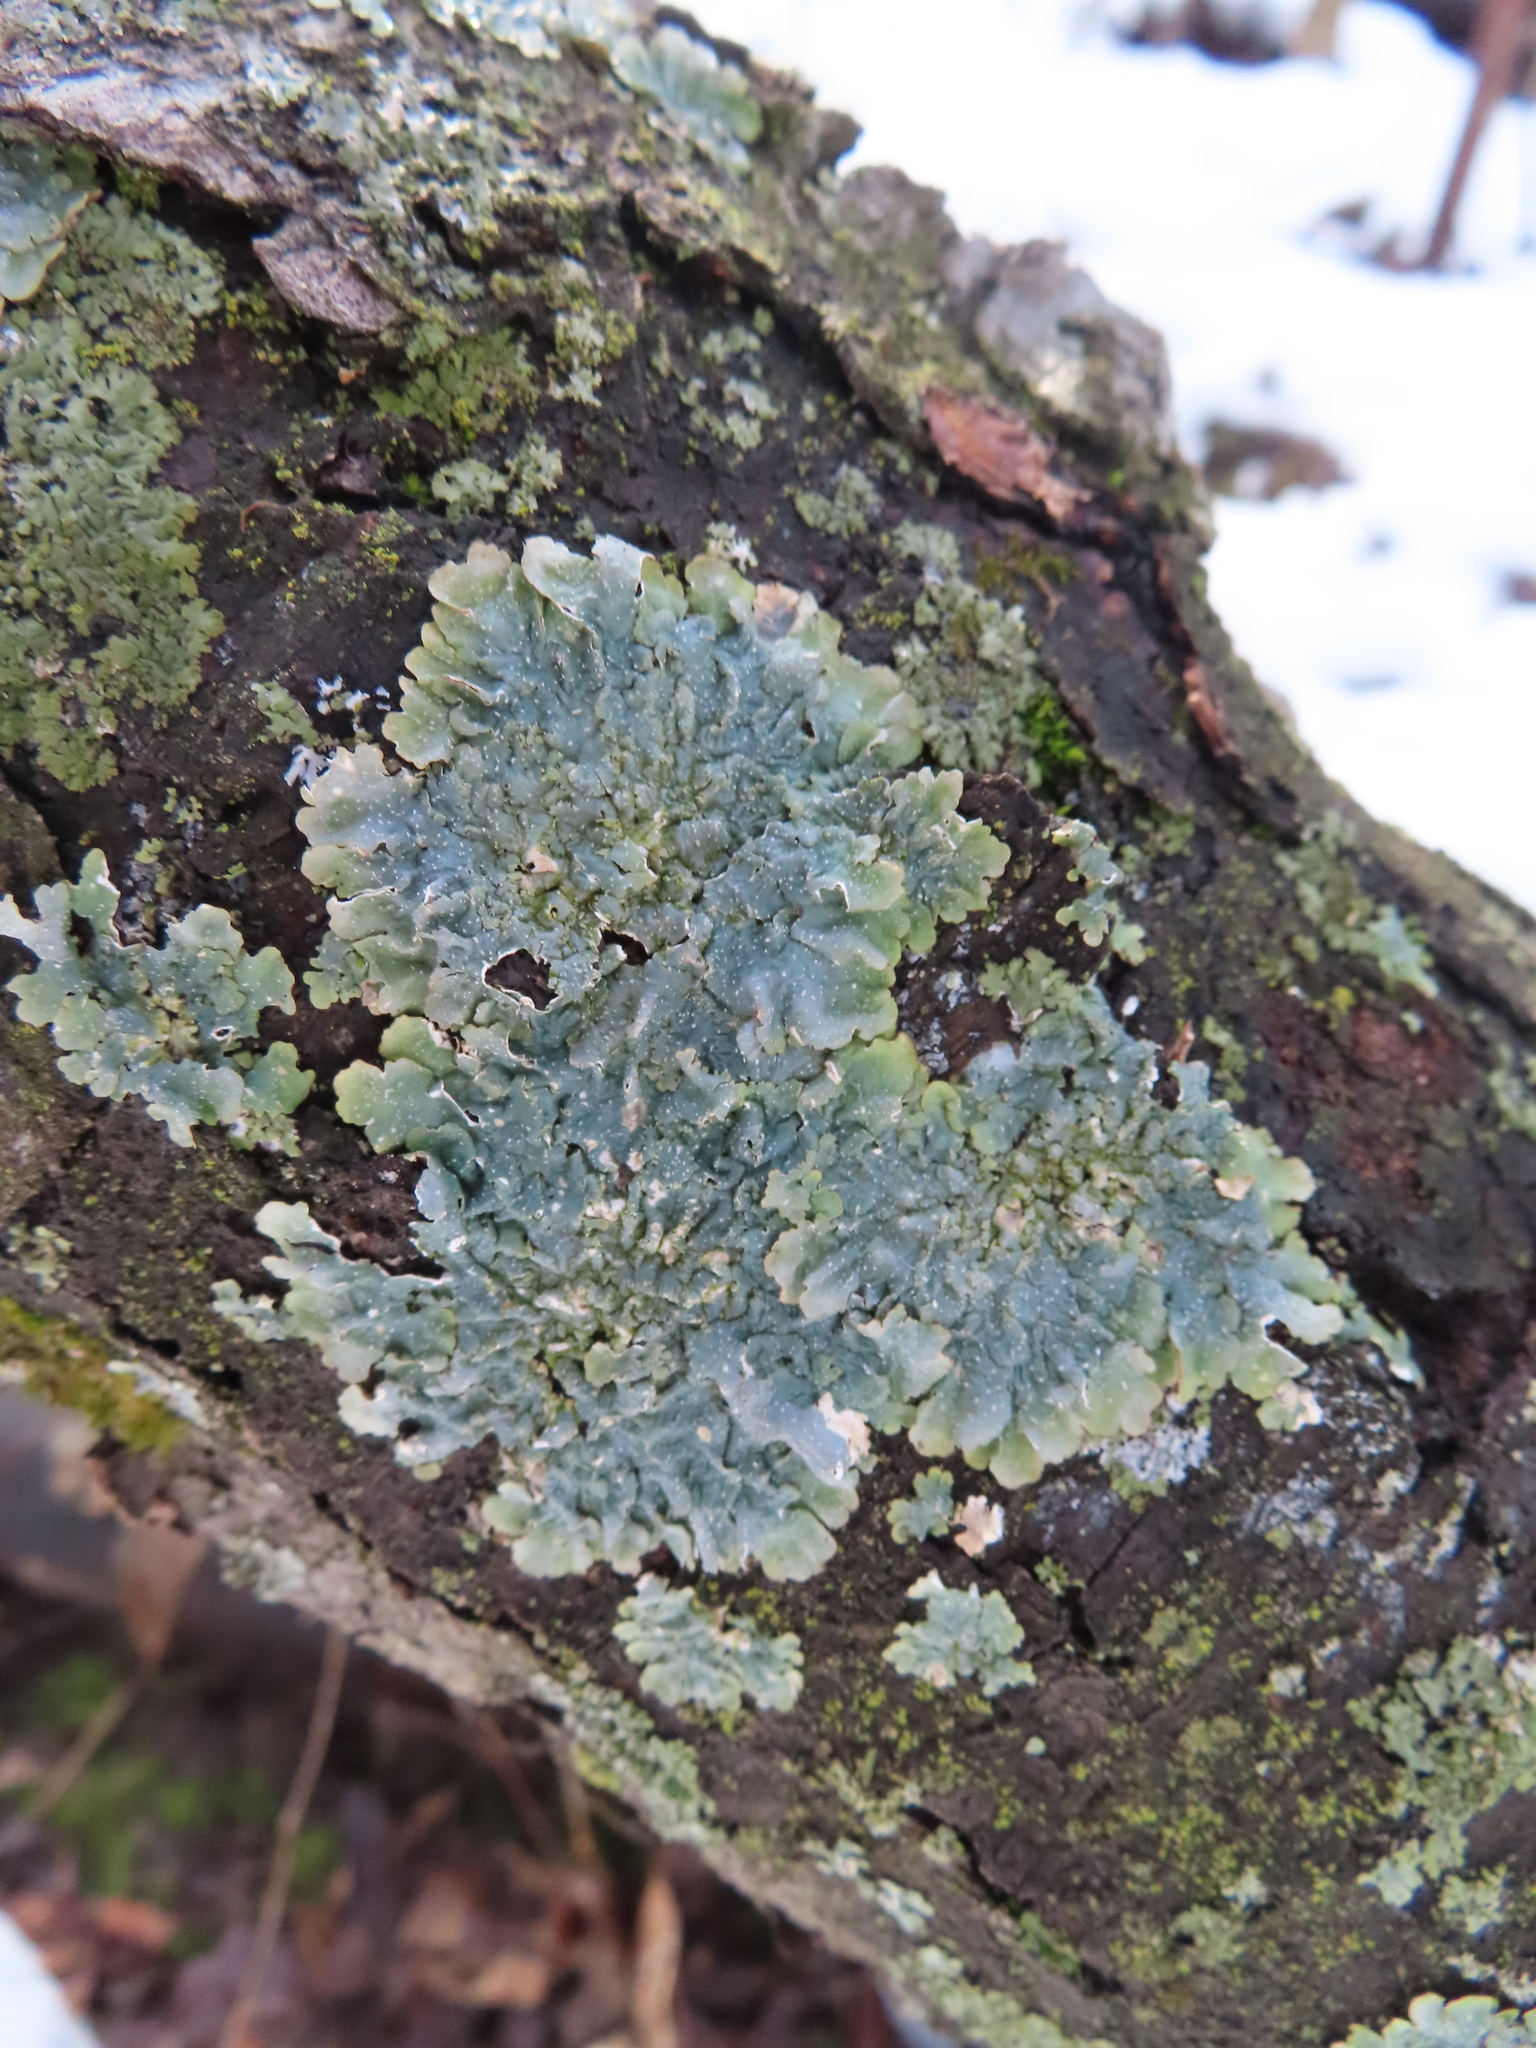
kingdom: Fungi
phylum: Ascomycota
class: Lecanoromycetes
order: Lecanorales
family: Parmeliaceae
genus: Punctelia
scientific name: Punctelia rudecta
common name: Rough speckled shield lichen
